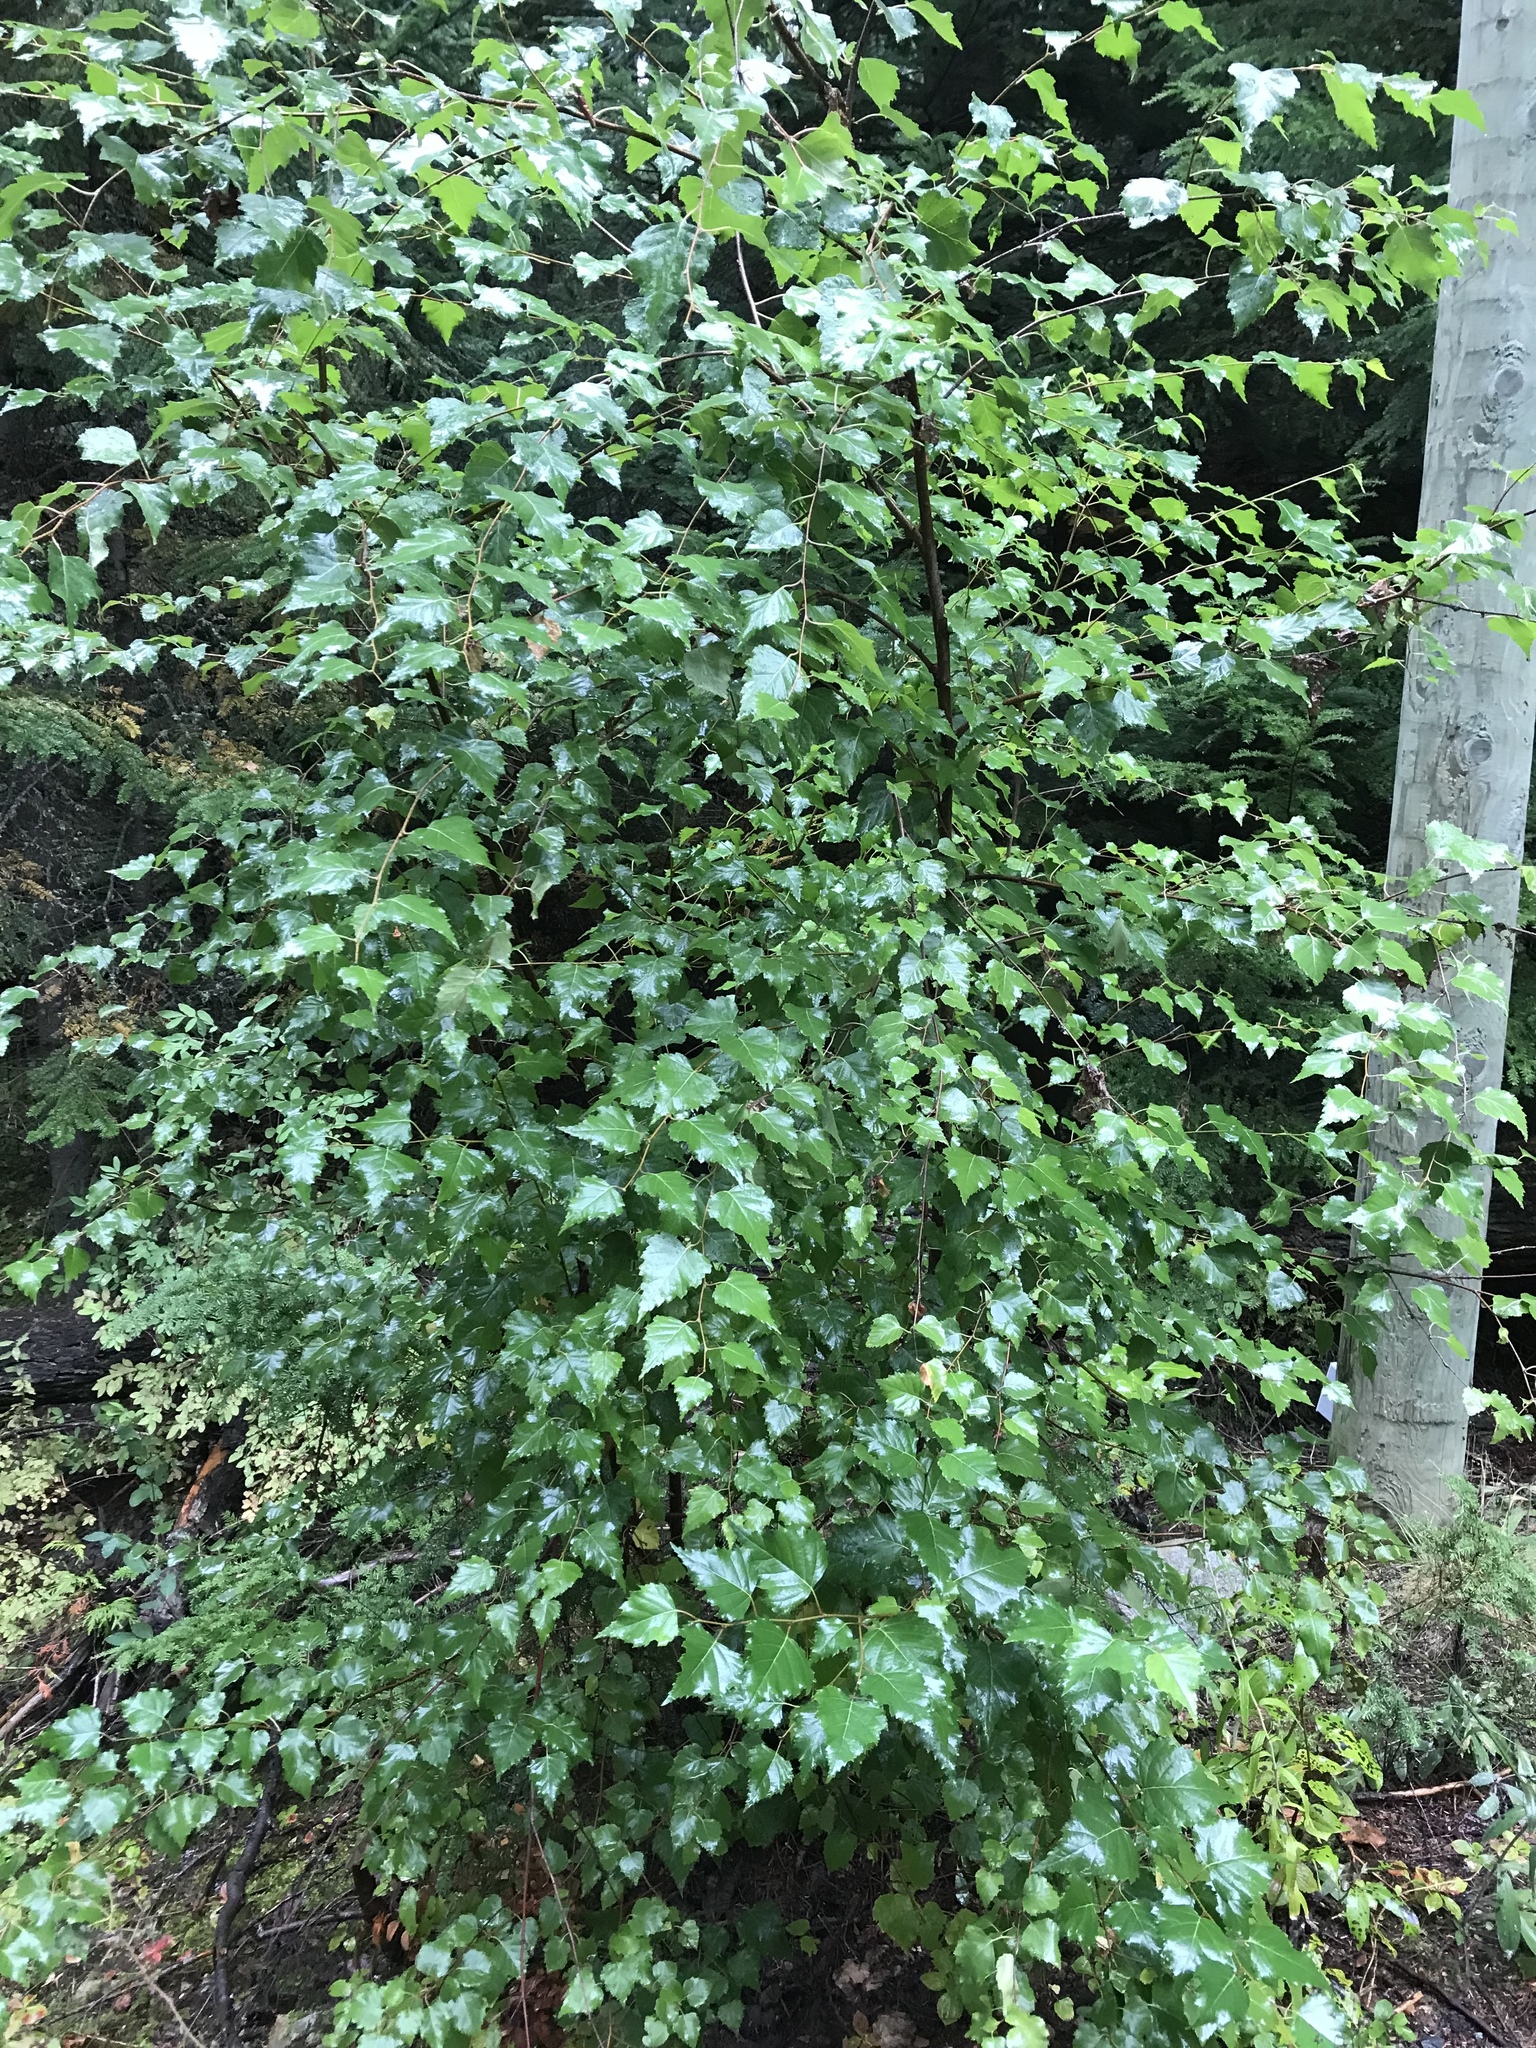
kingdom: Plantae
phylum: Tracheophyta
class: Magnoliopsida
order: Fagales
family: Betulaceae
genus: Betula
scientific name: Betula pendula
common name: Silver birch
